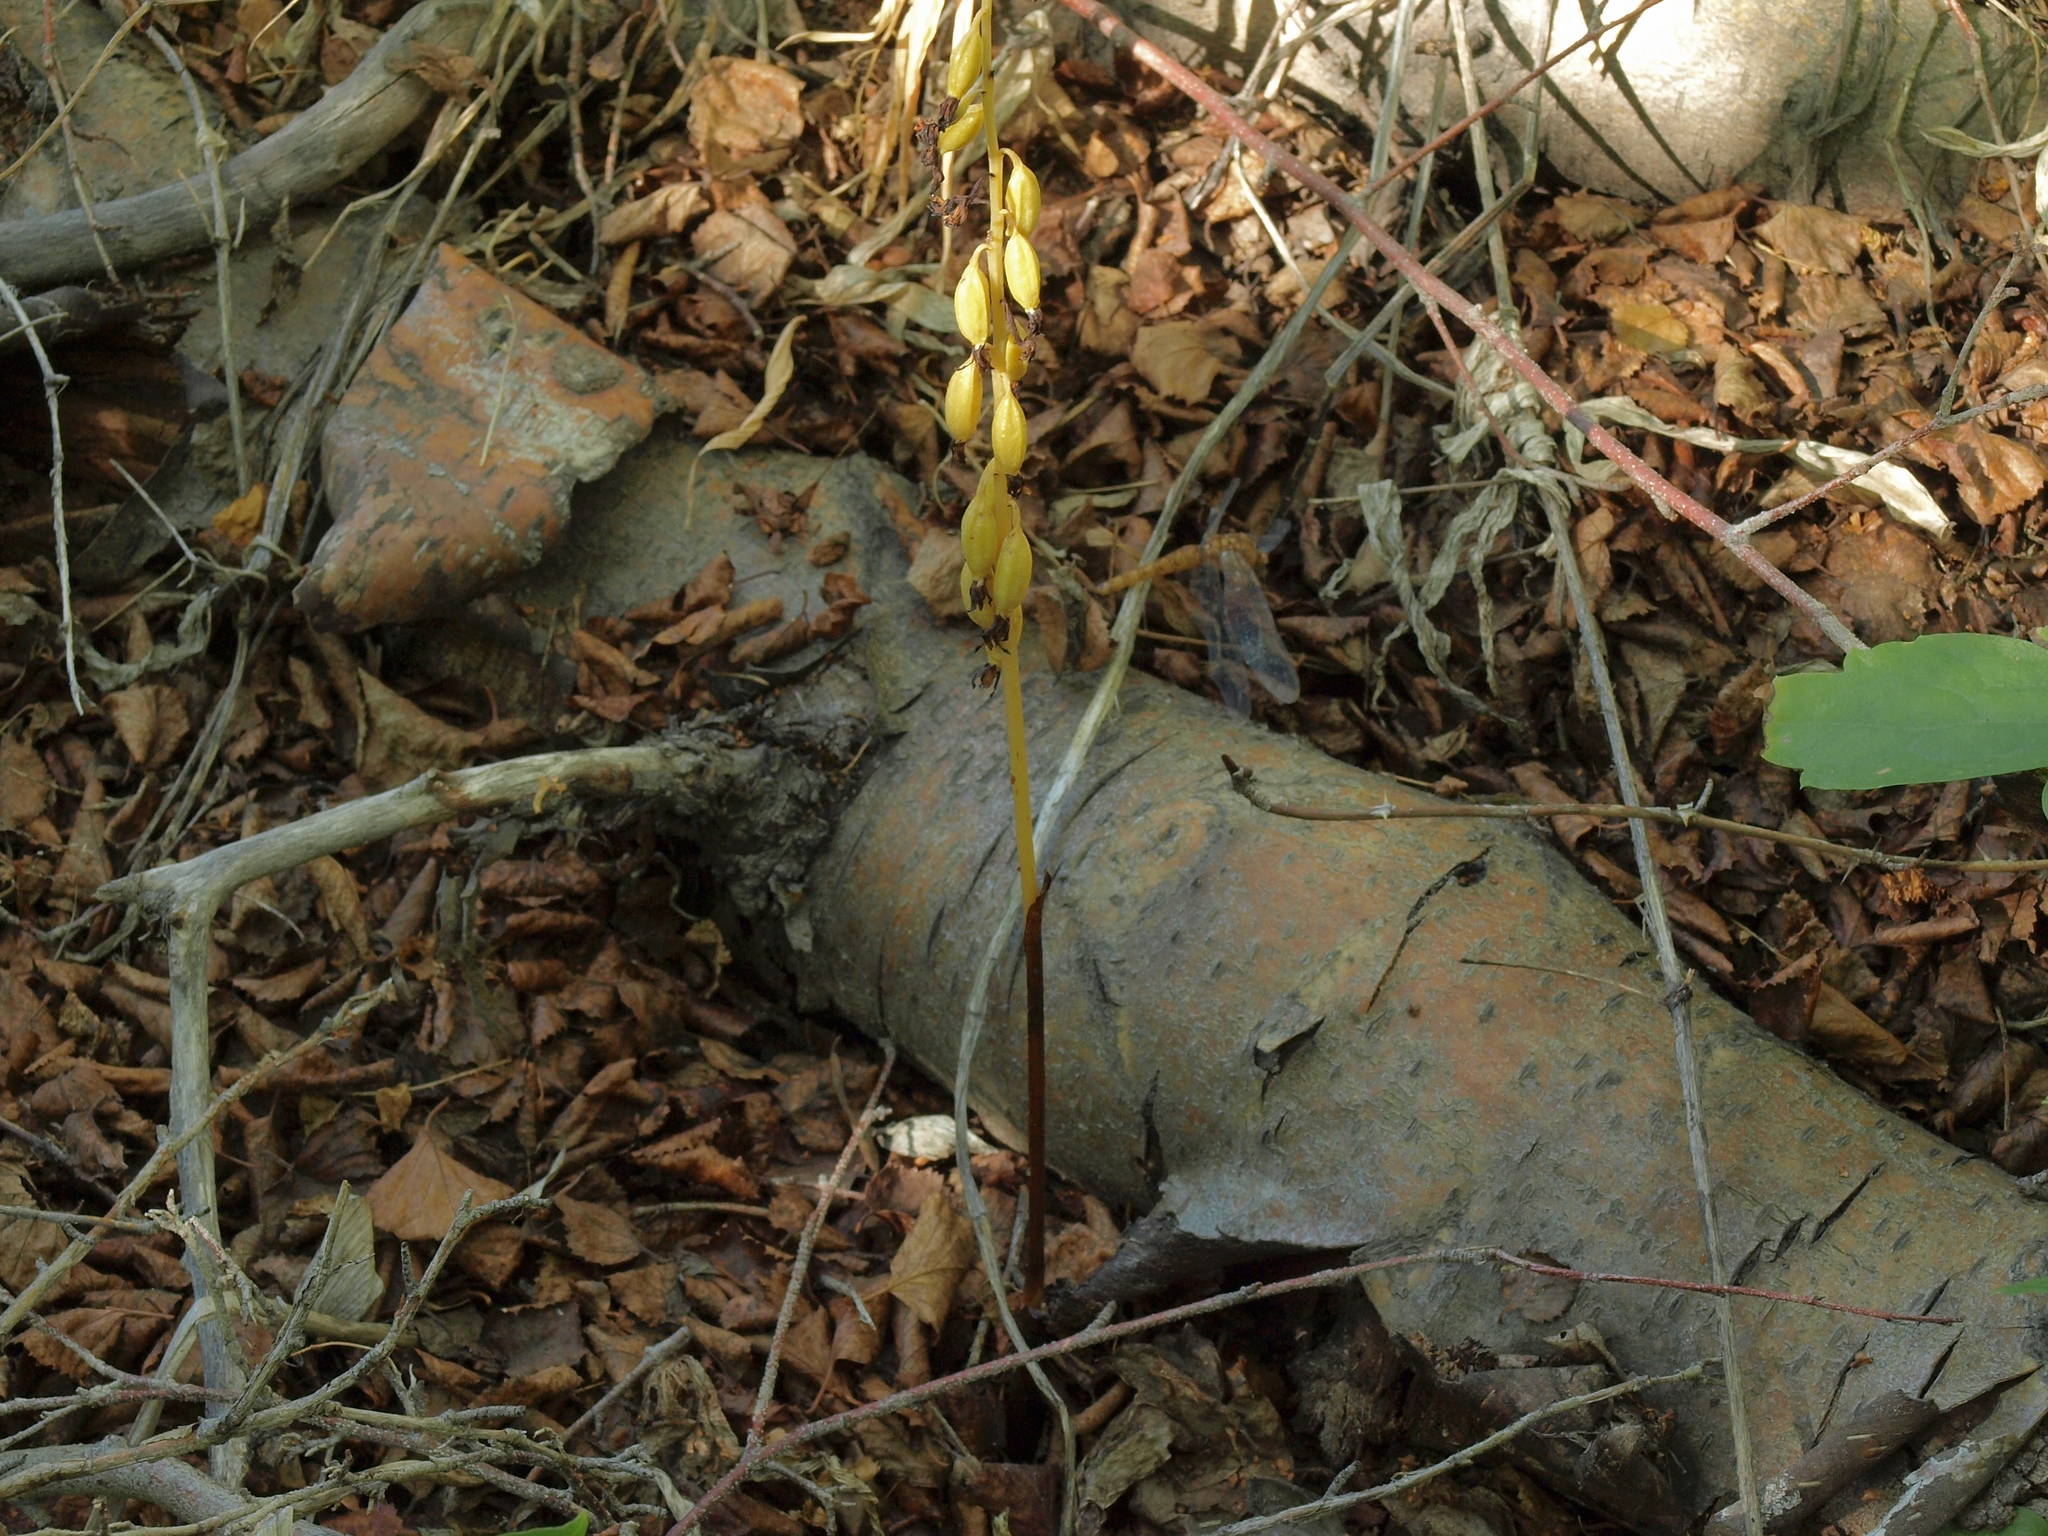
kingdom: Plantae
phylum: Tracheophyta
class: Liliopsida
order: Asparagales
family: Orchidaceae
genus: Corallorhiza
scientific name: Corallorhiza maculata
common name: Spotted coralroot
